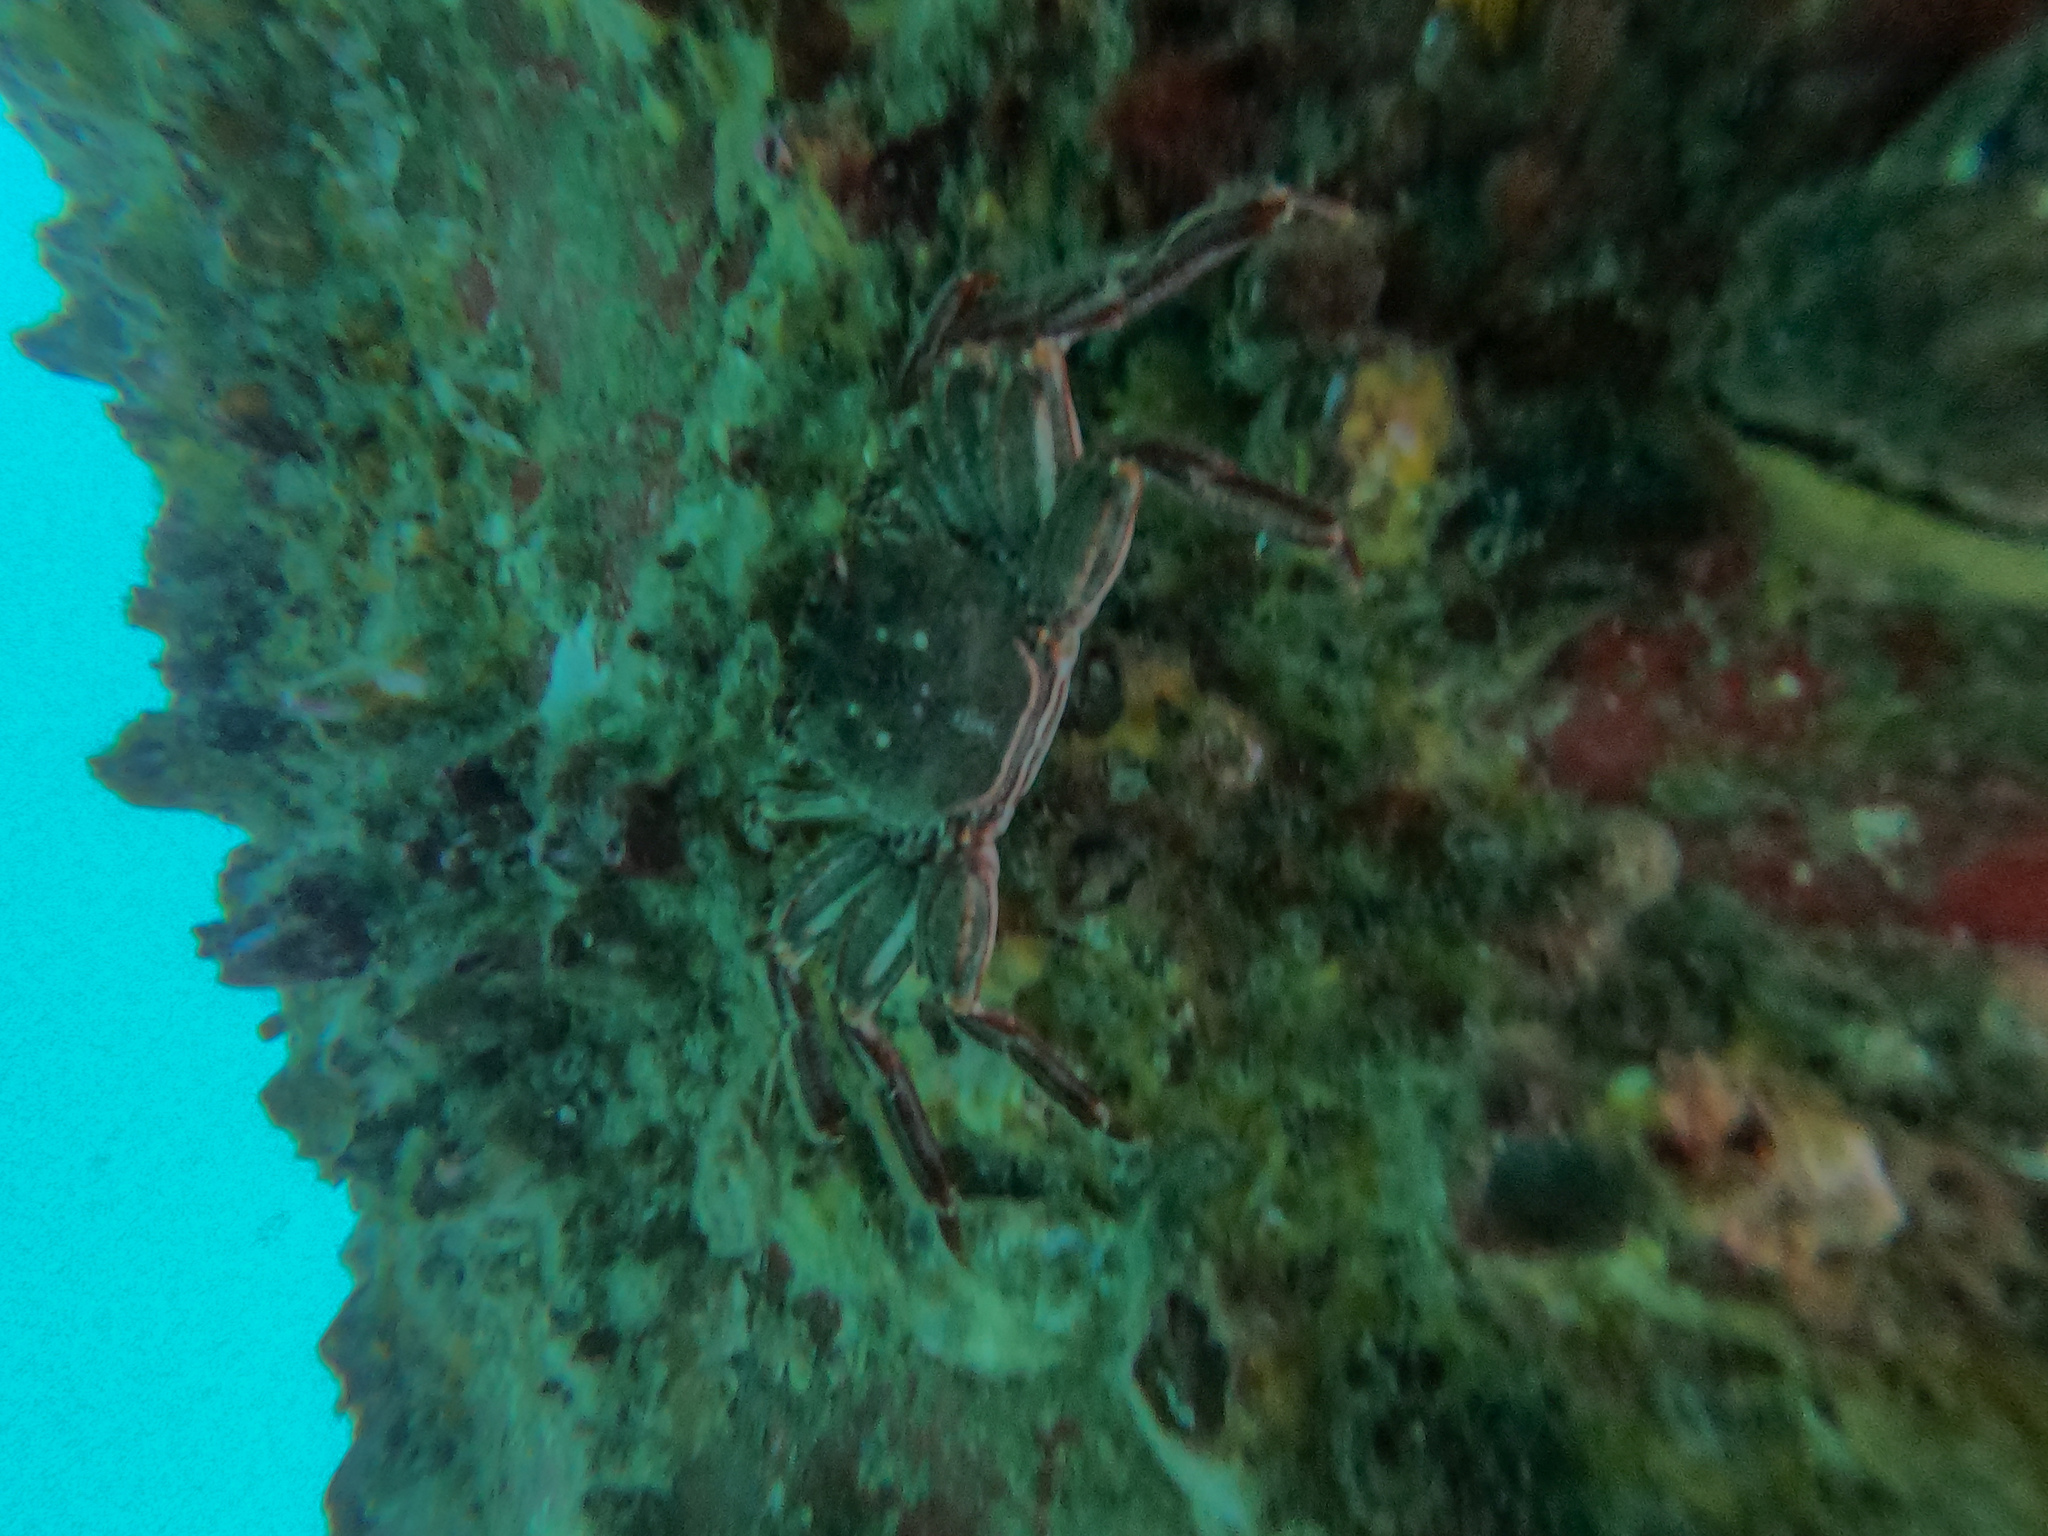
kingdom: Animalia
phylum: Arthropoda
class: Malacostraca
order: Decapoda
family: Plagusiidae
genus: Guinusia
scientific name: Guinusia chabrus
